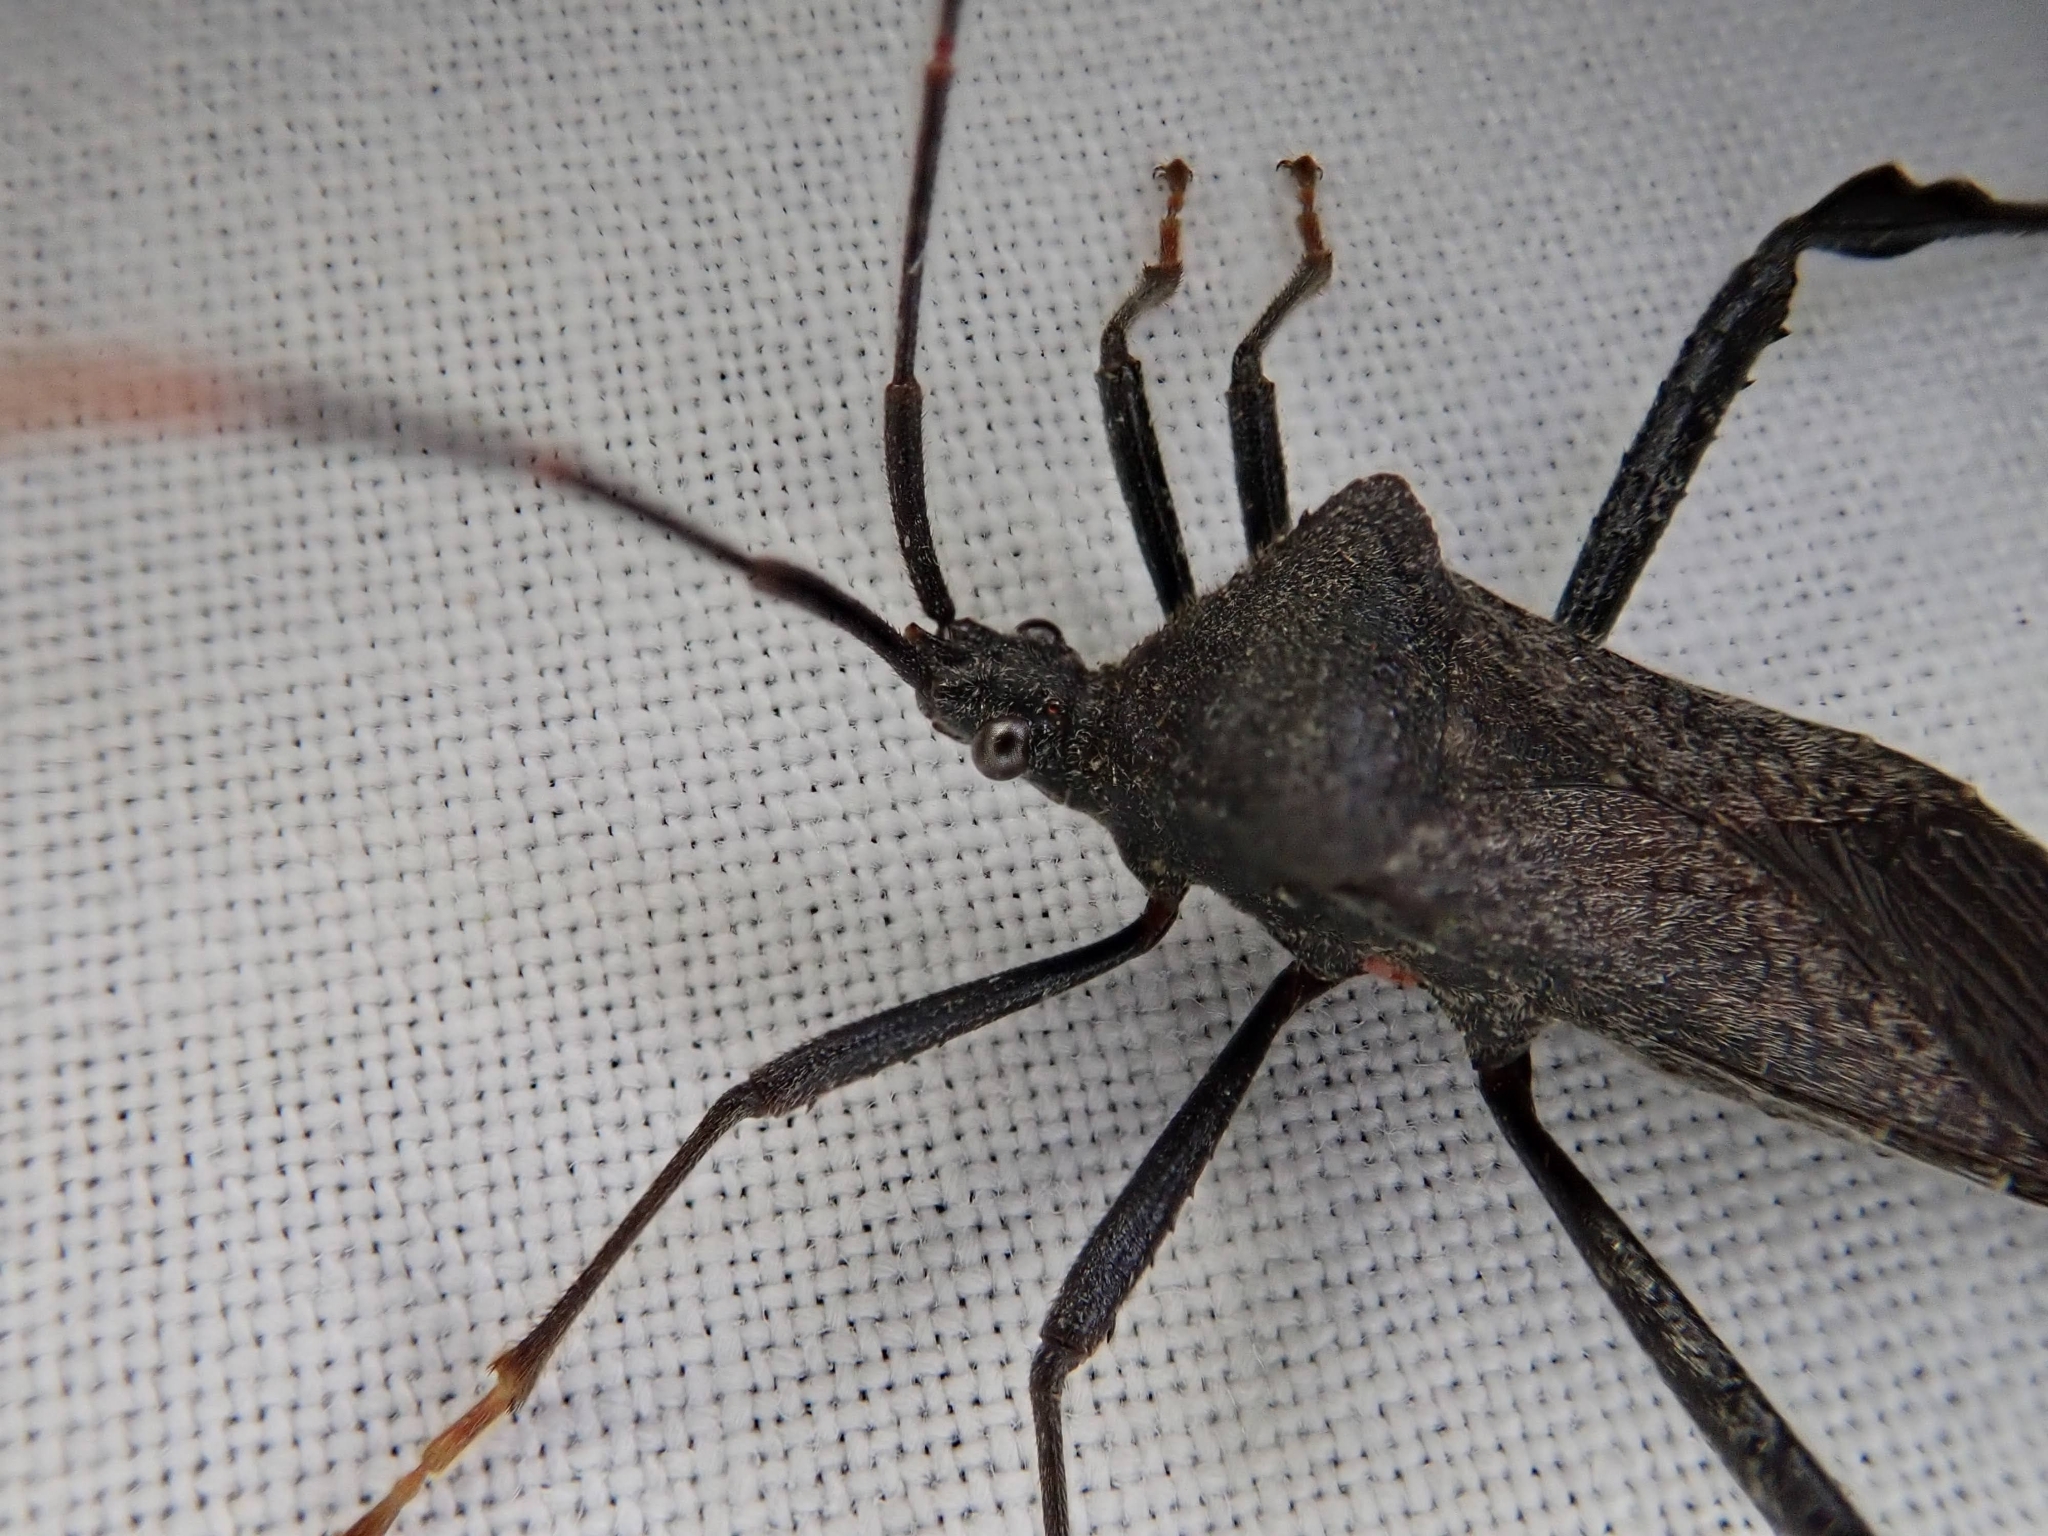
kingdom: Animalia
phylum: Arthropoda
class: Insecta
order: Hemiptera
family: Coreidae
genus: Acanthocephala
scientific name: Acanthocephala terminalis
